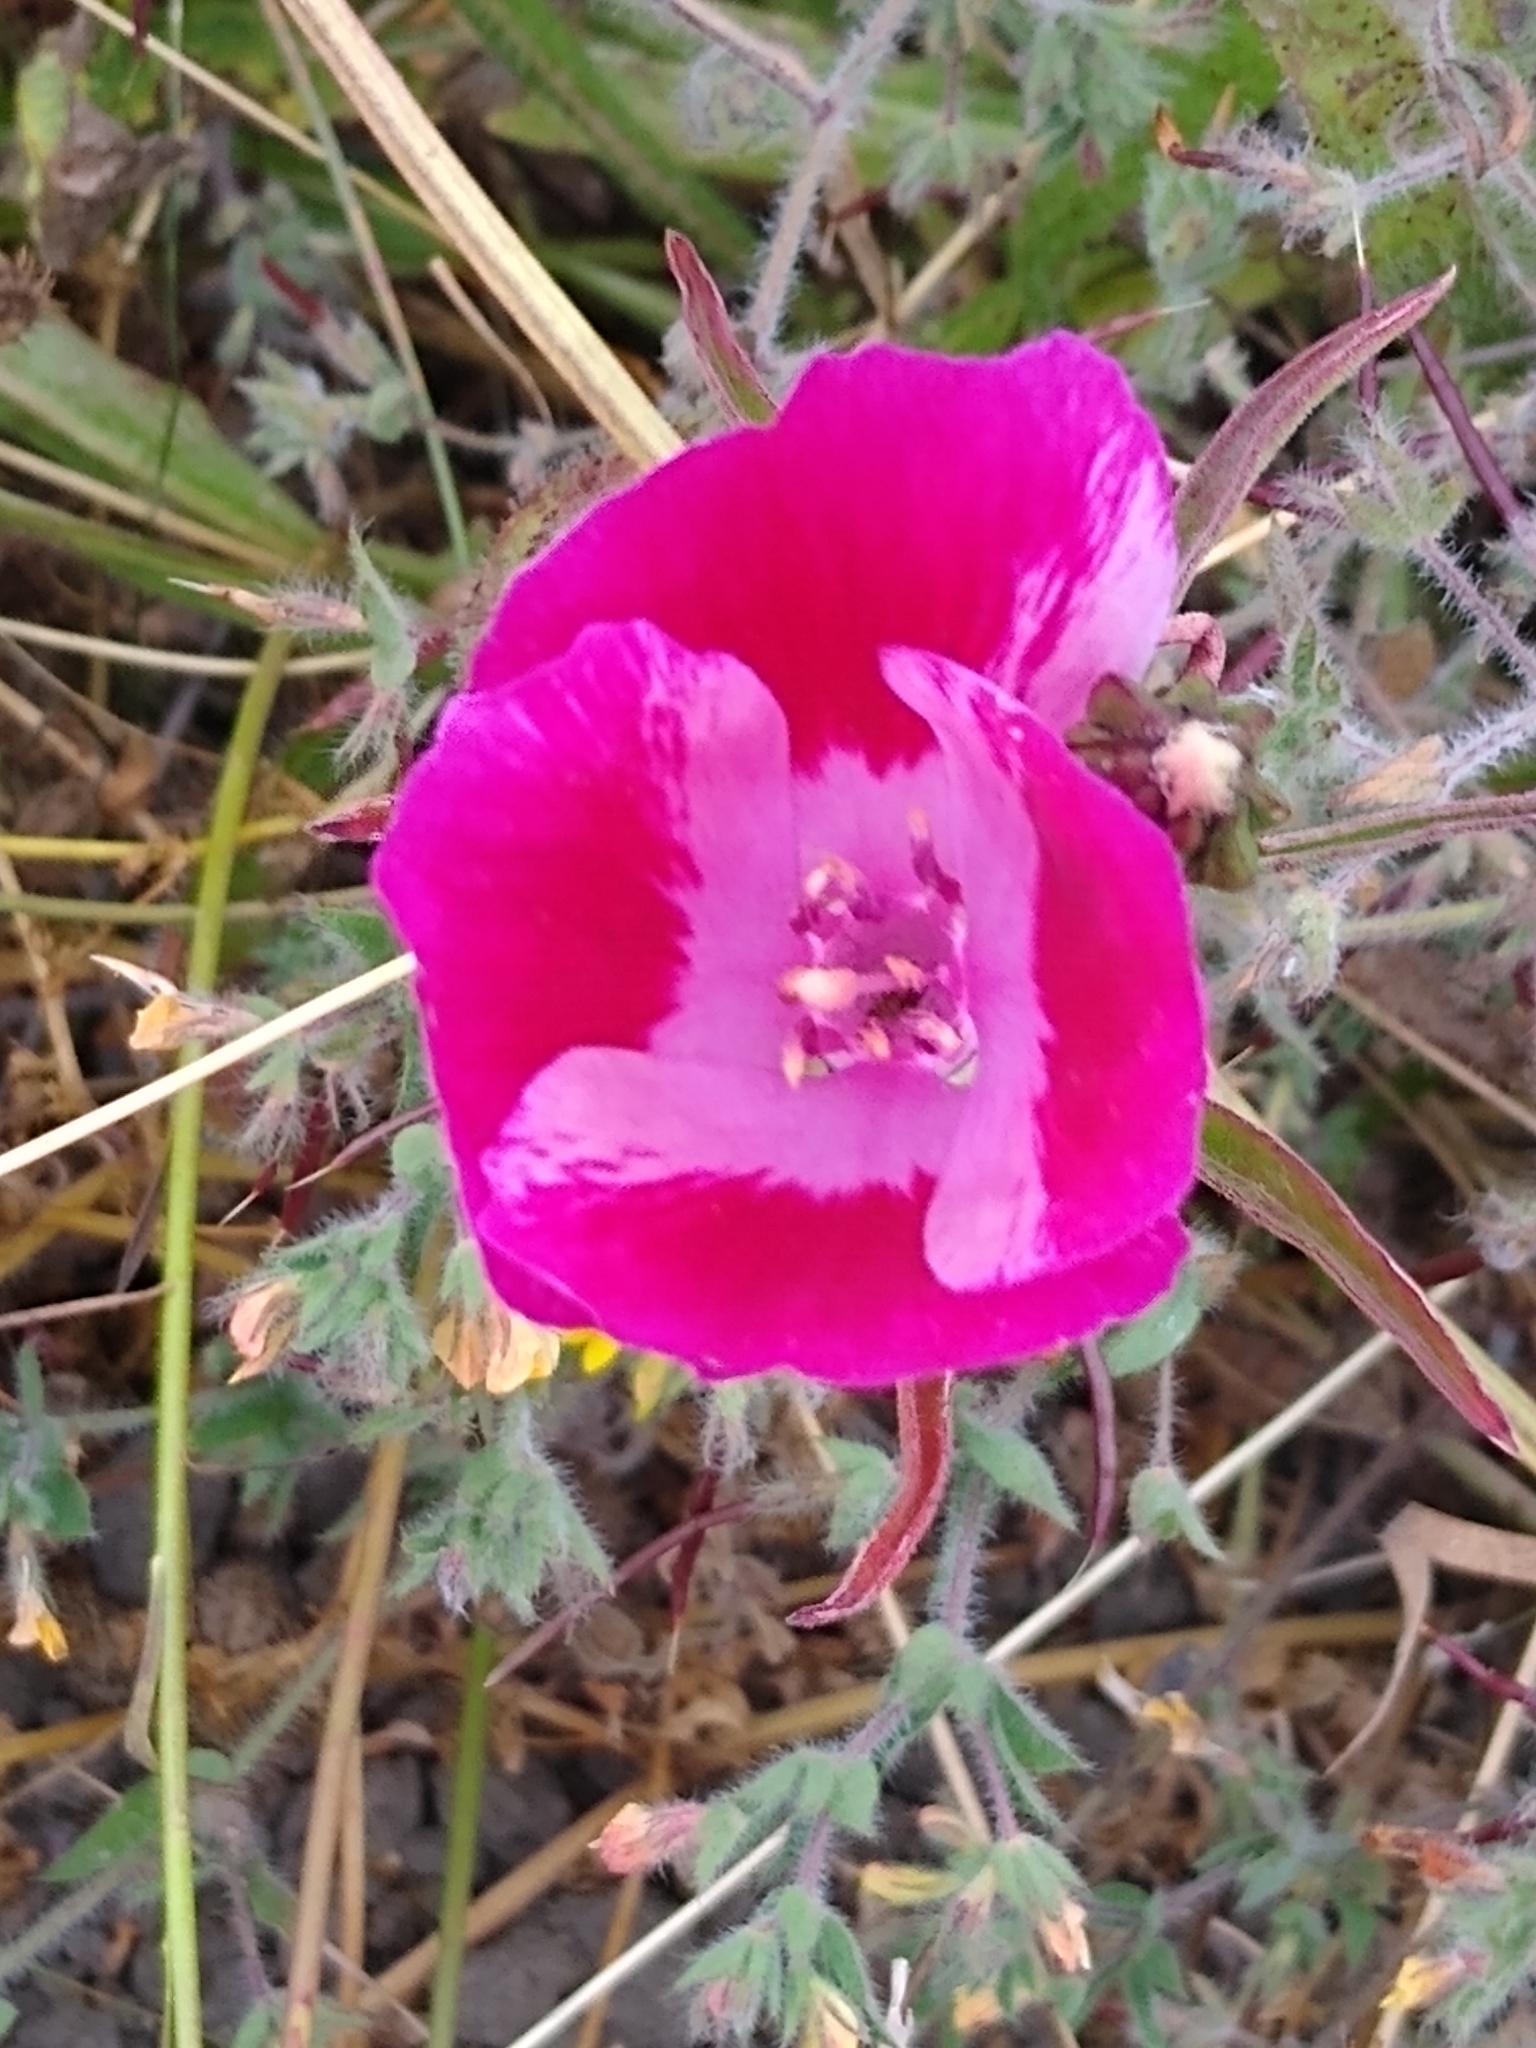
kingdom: Plantae
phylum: Tracheophyta
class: Magnoliopsida
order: Myrtales
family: Onagraceae
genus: Clarkia
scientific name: Clarkia amoena
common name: Godetia
